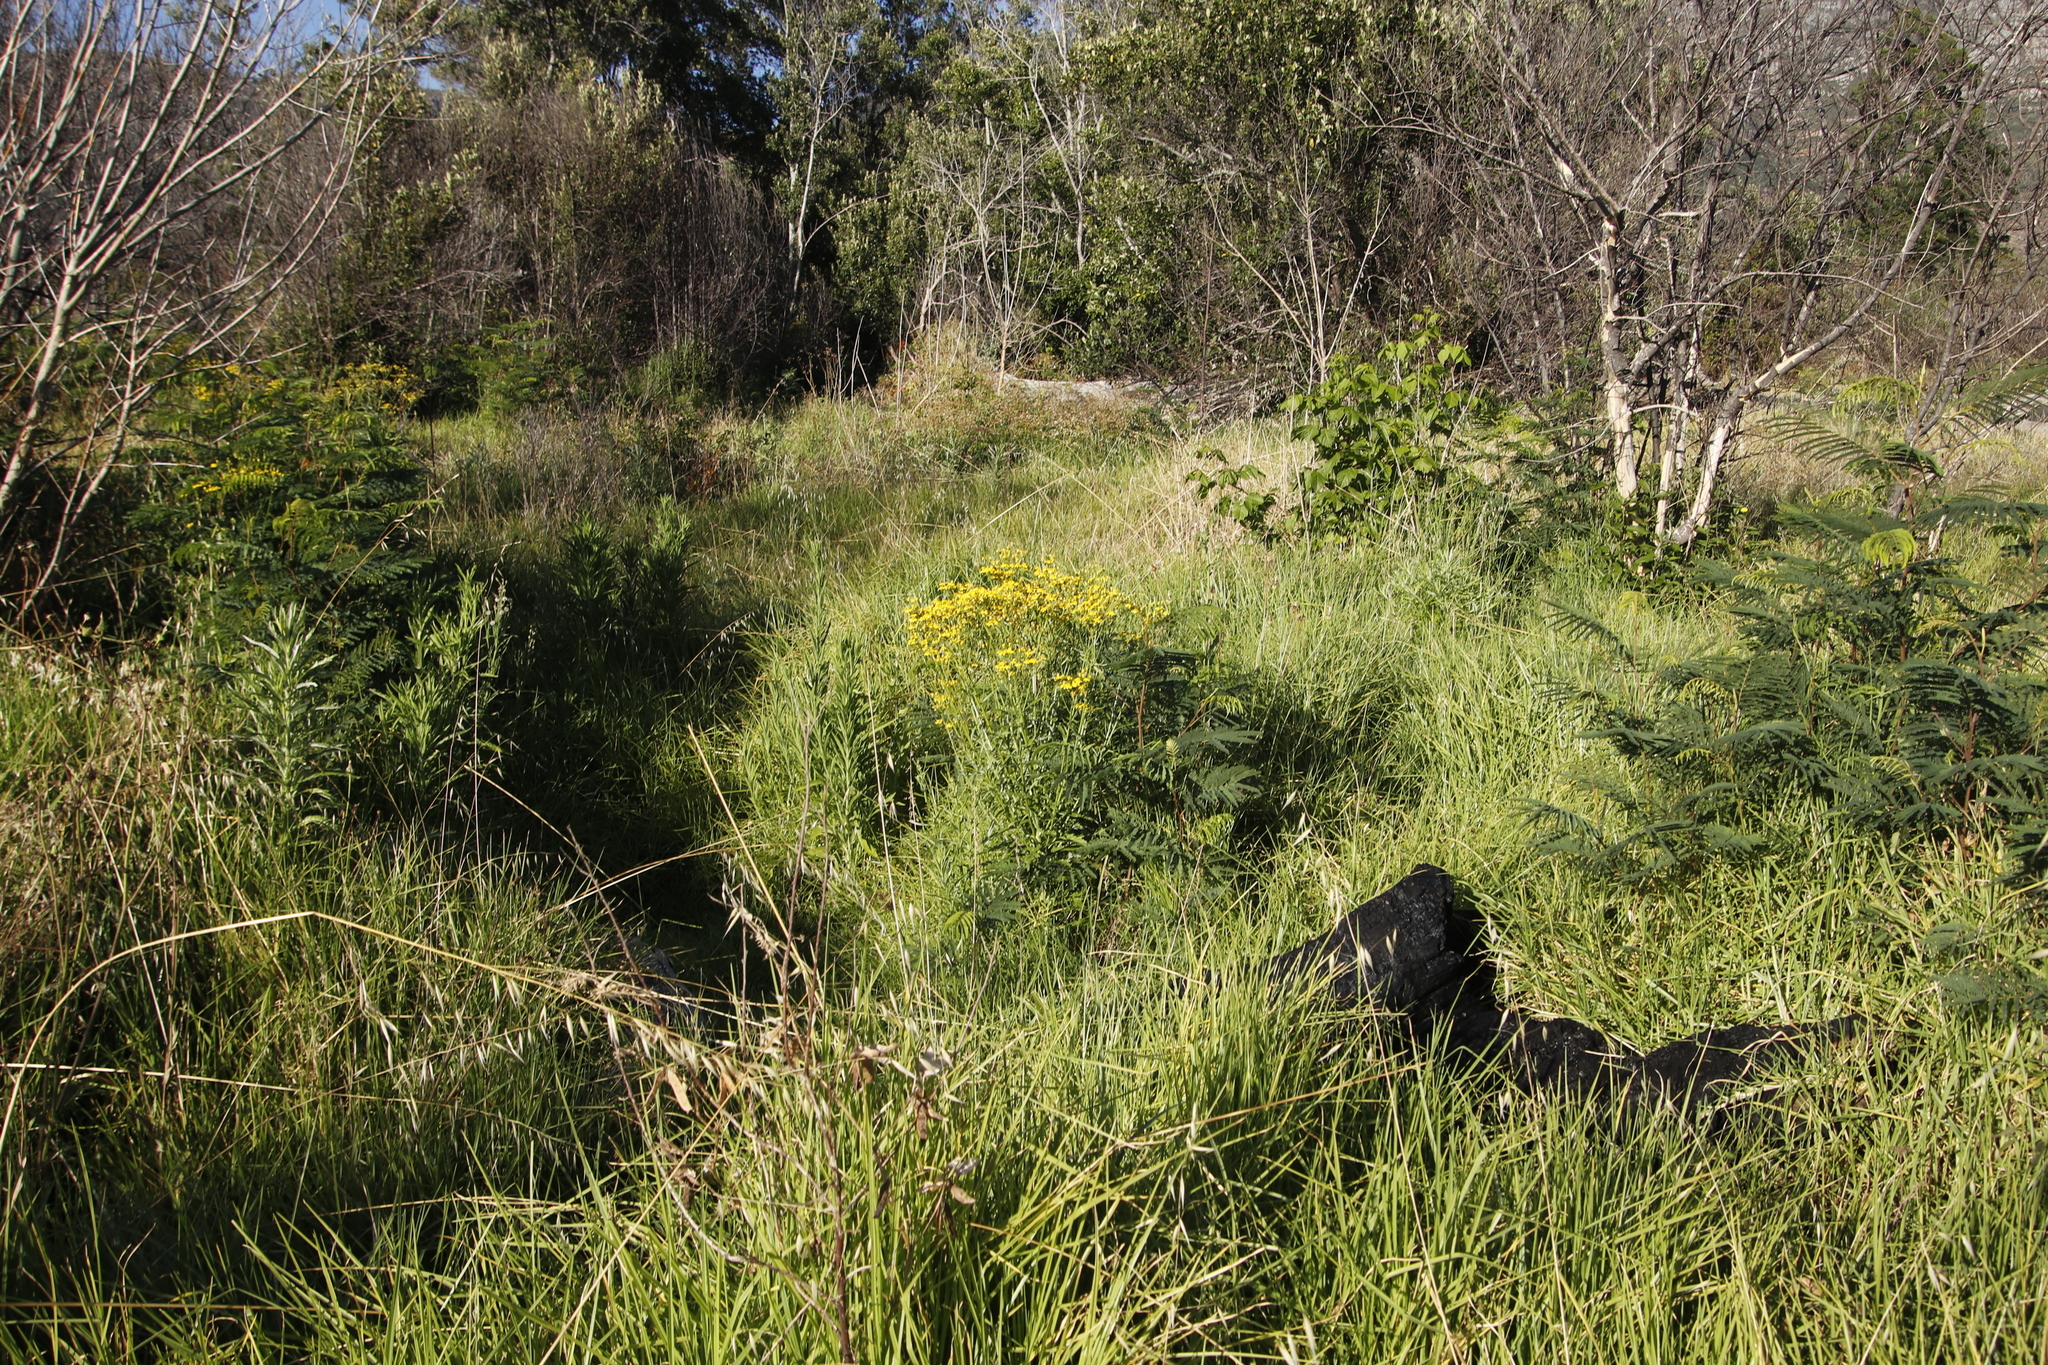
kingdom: Plantae
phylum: Tracheophyta
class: Magnoliopsida
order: Asterales
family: Asteraceae
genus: Senecio
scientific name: Senecio pterophorus
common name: Shoddy ragwort
